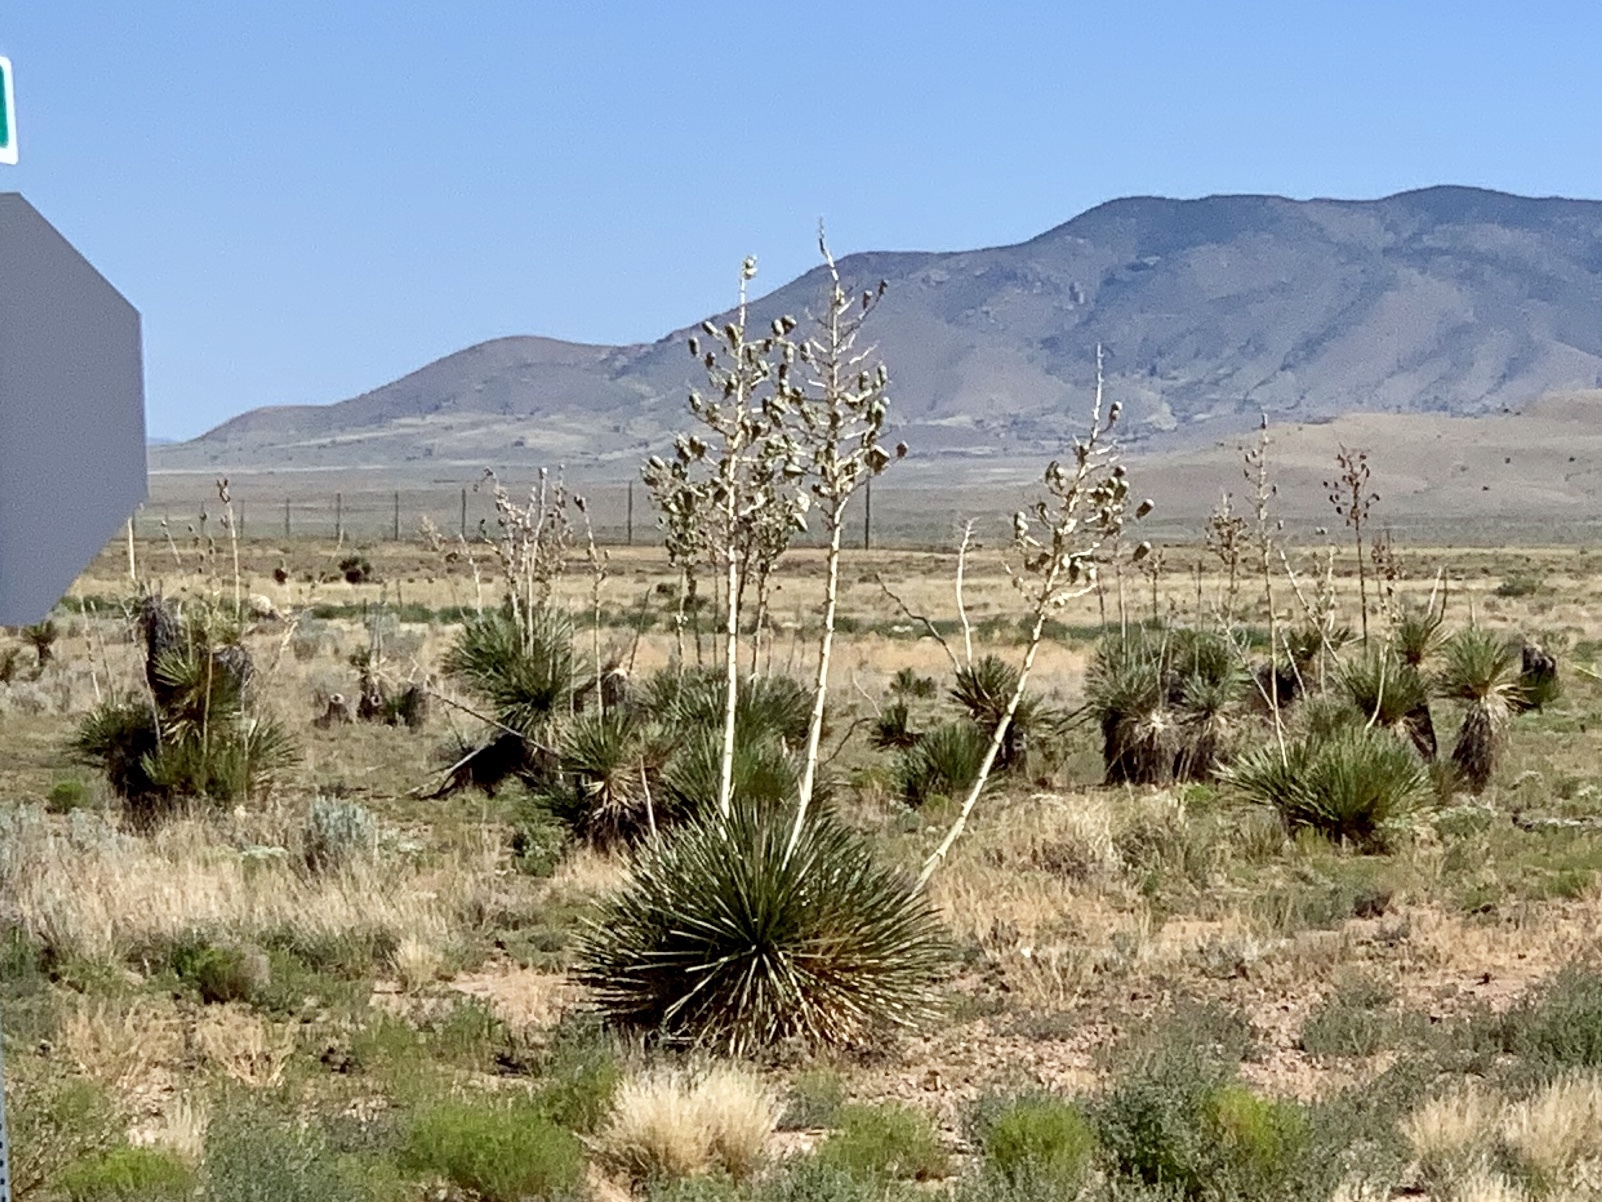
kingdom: Plantae
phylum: Tracheophyta
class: Liliopsida
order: Asparagales
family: Asparagaceae
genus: Yucca
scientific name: Yucca elata
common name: Palmella
